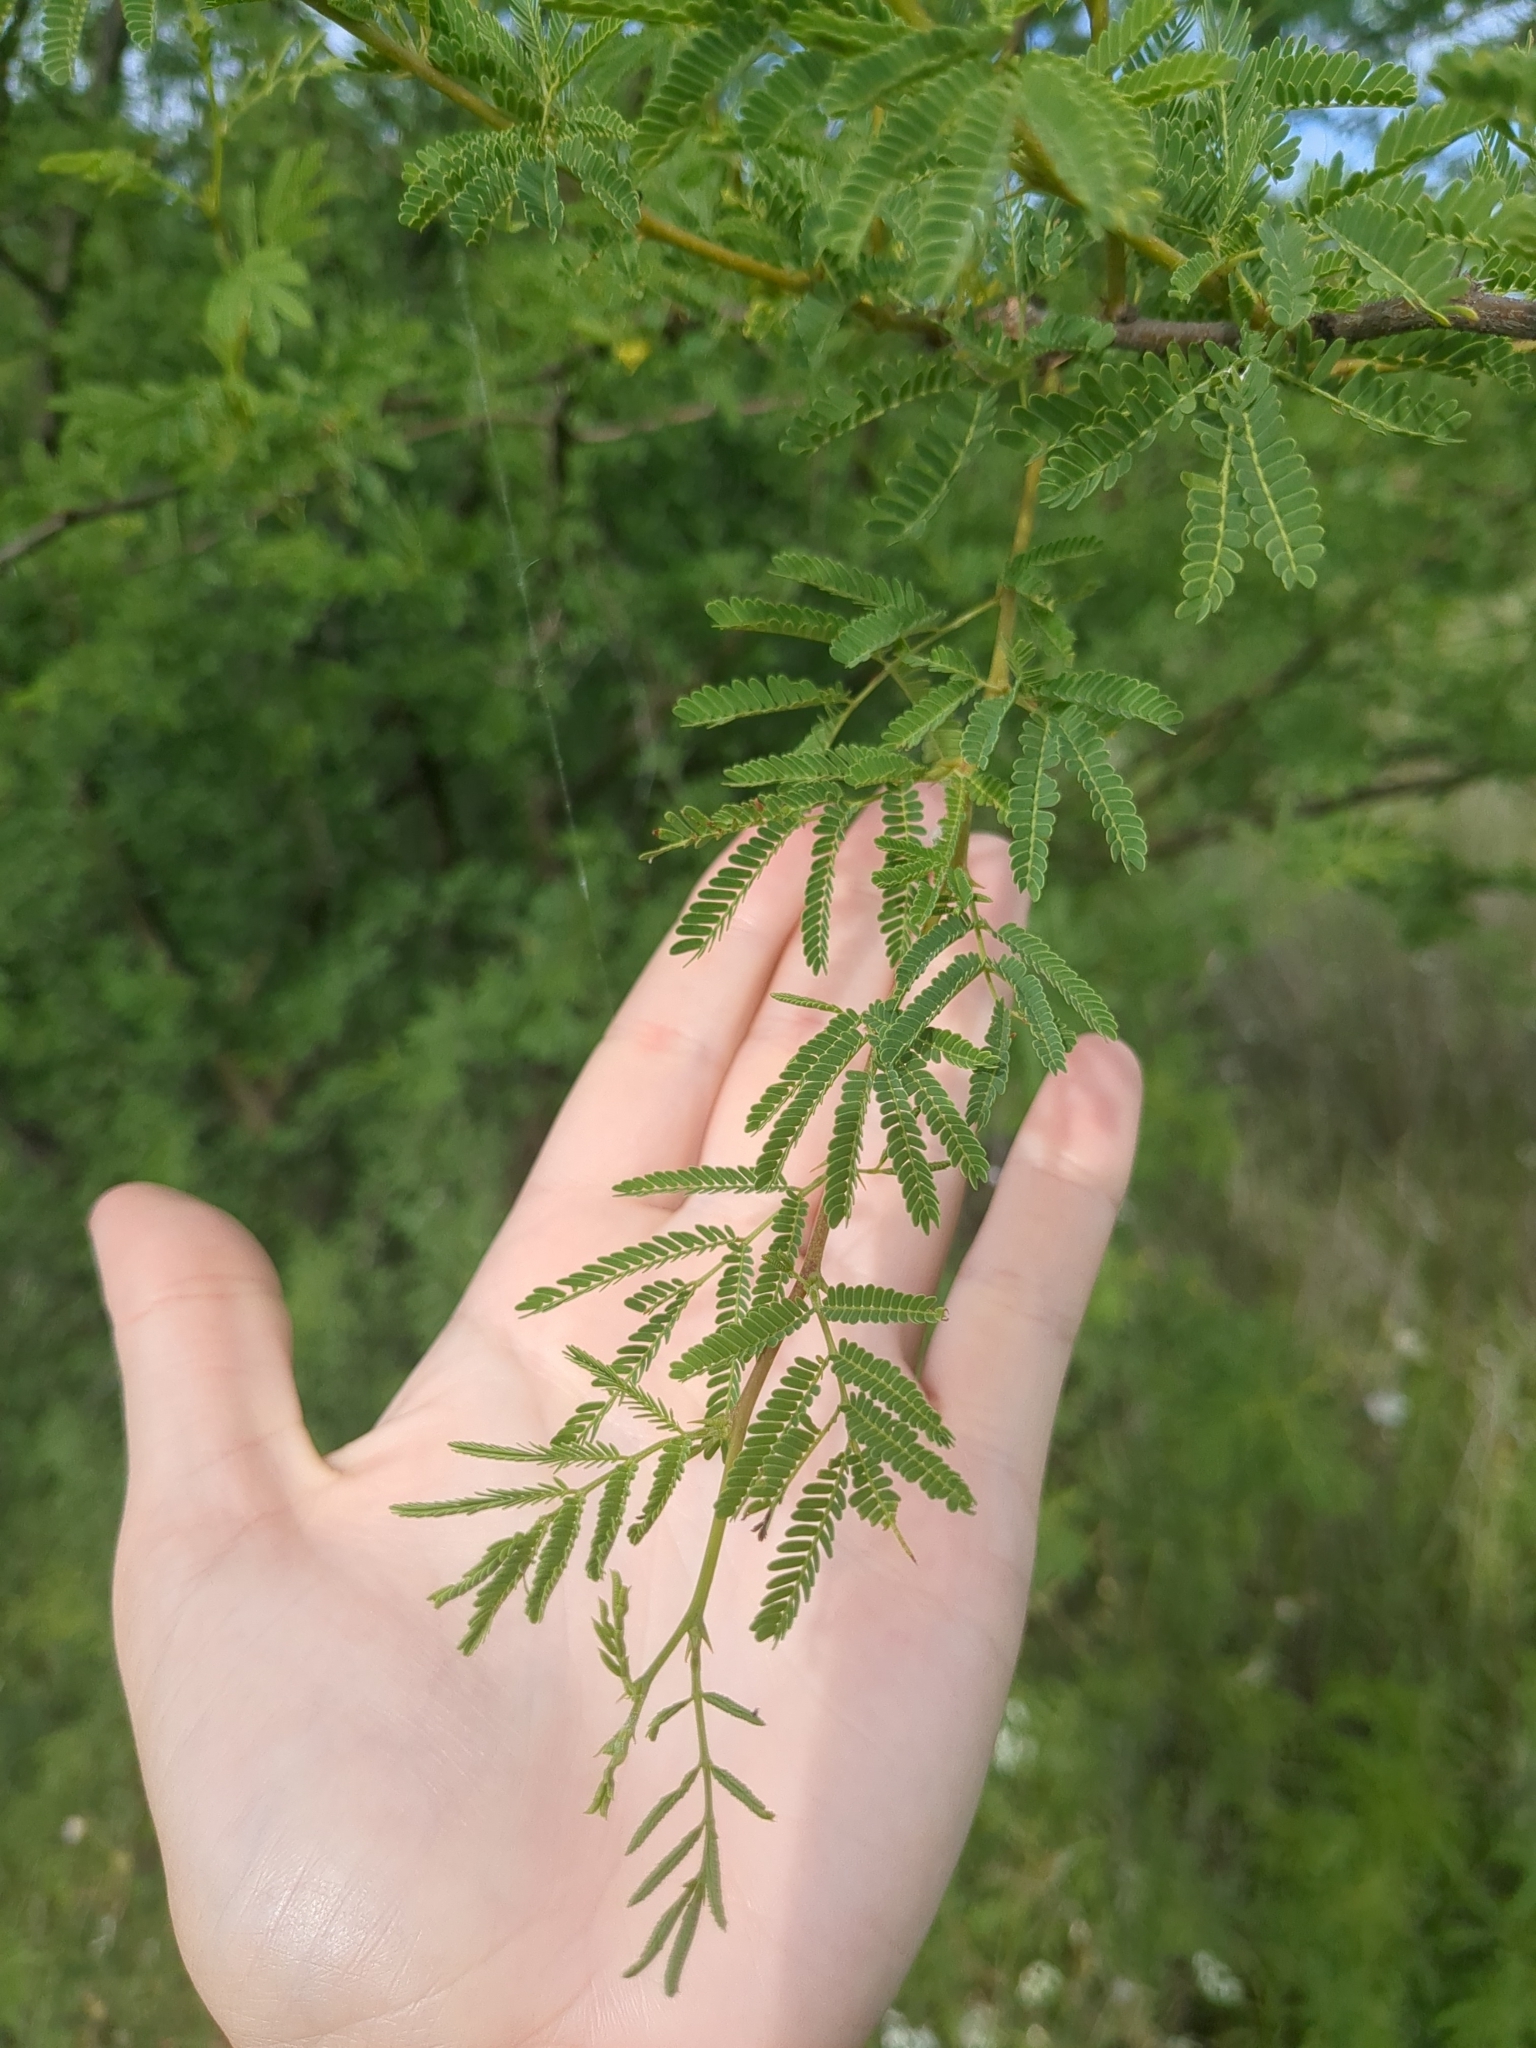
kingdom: Plantae
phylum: Tracheophyta
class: Magnoliopsida
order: Fabales
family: Fabaceae
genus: Vachellia
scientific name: Vachellia farnesiana
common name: Sweet acacia
